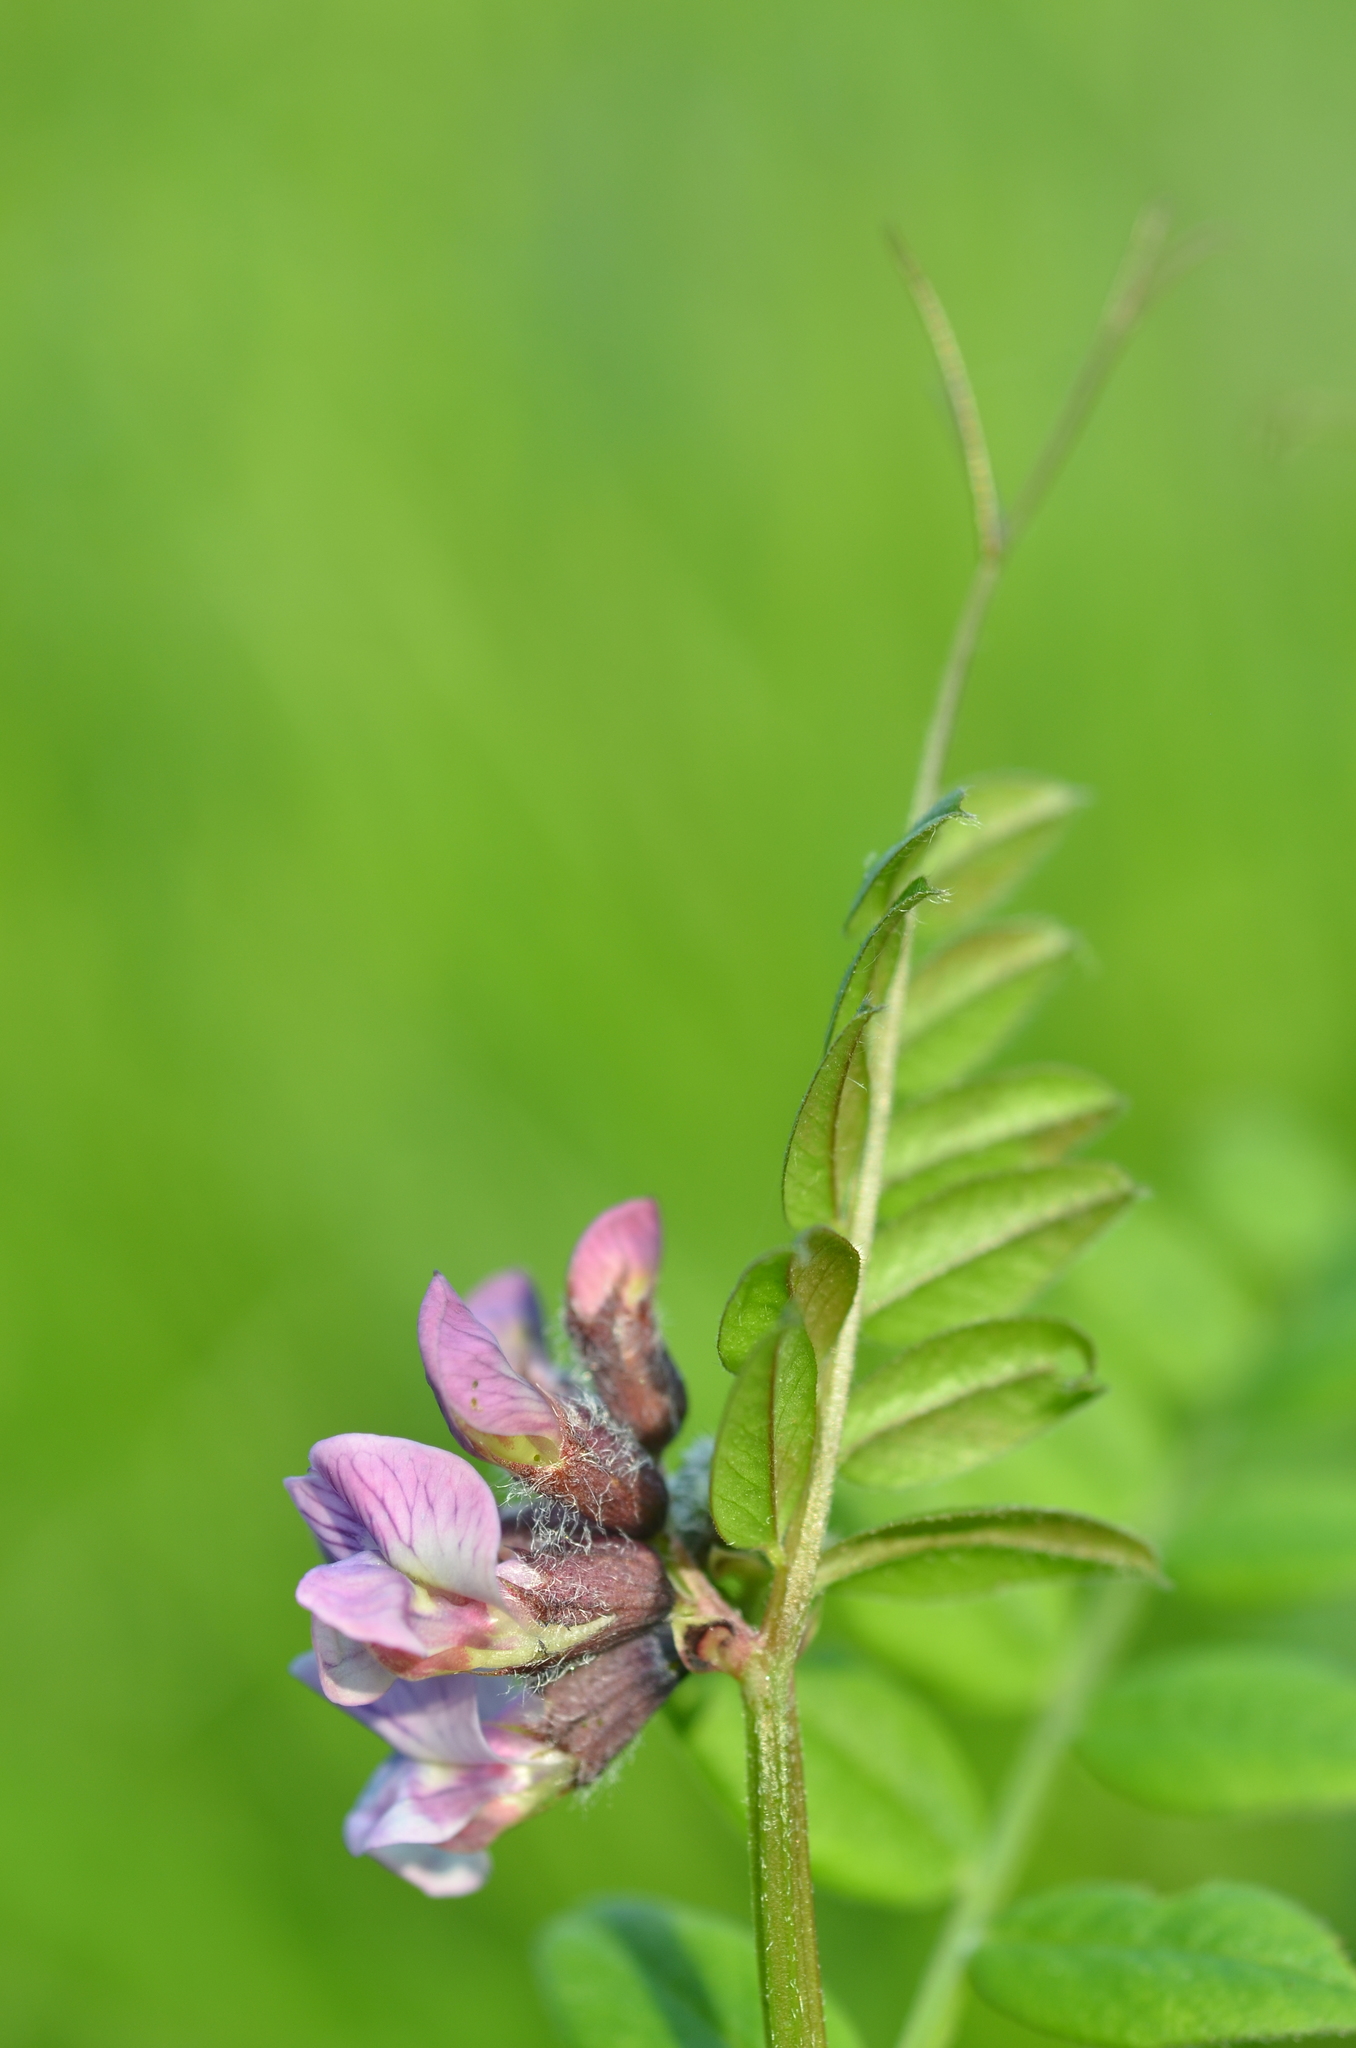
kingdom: Plantae
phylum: Tracheophyta
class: Magnoliopsida
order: Fabales
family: Fabaceae
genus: Vicia
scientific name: Vicia sepium
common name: Bush vetch
